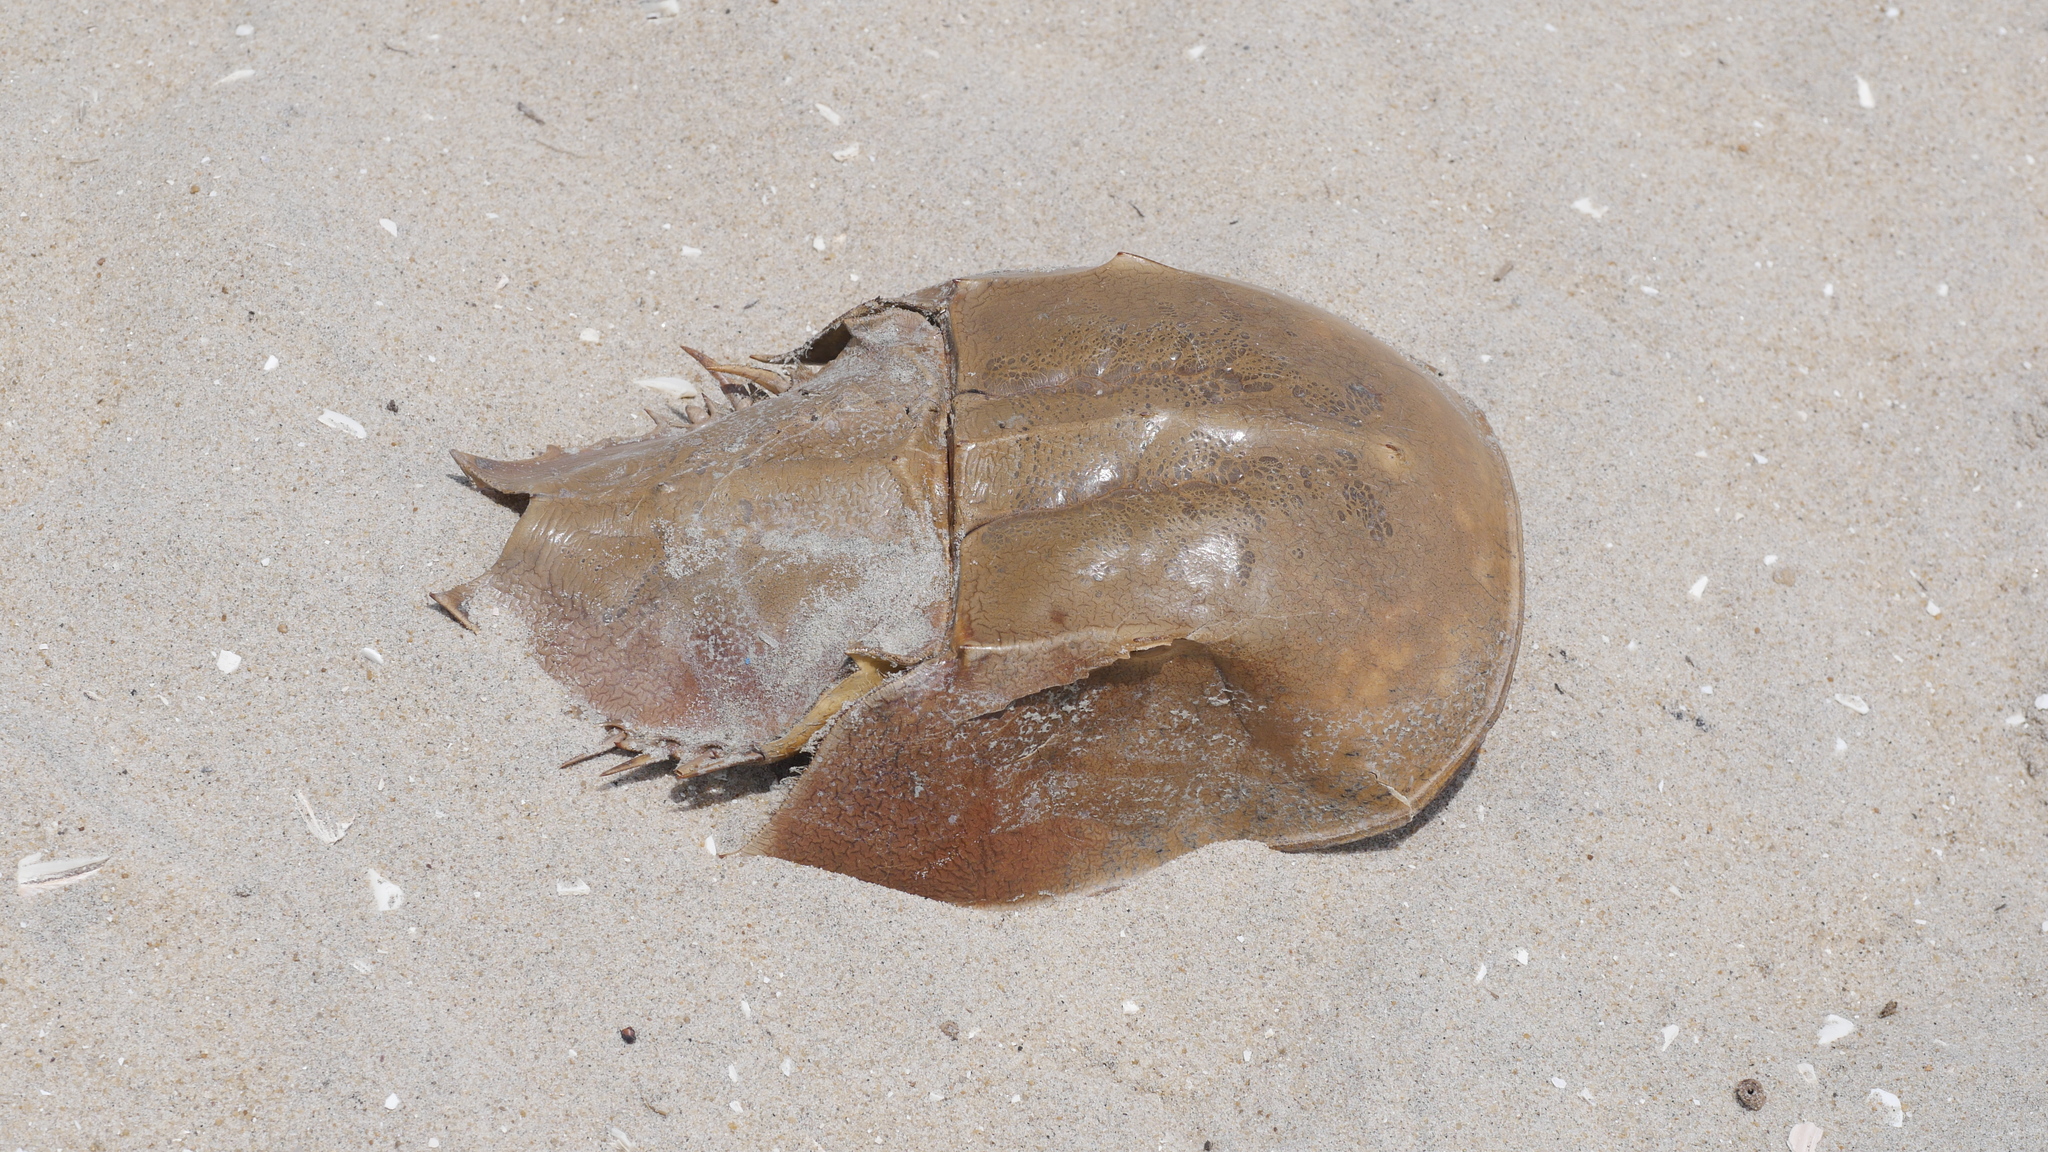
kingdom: Animalia
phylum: Arthropoda
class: Merostomata
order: Xiphosurida
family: Limulidae
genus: Limulus
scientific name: Limulus polyphemus
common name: Horseshoe crab
